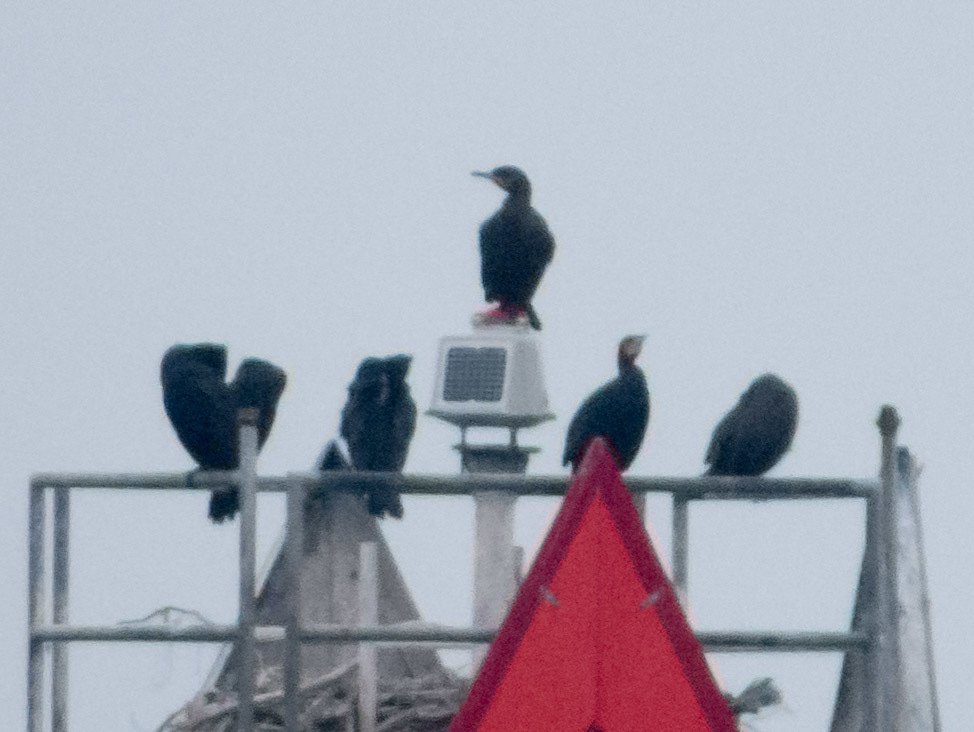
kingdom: Animalia
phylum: Chordata
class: Aves
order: Suliformes
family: Phalacrocoracidae
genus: Phalacrocorax
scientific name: Phalacrocorax carbo
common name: Great cormorant
